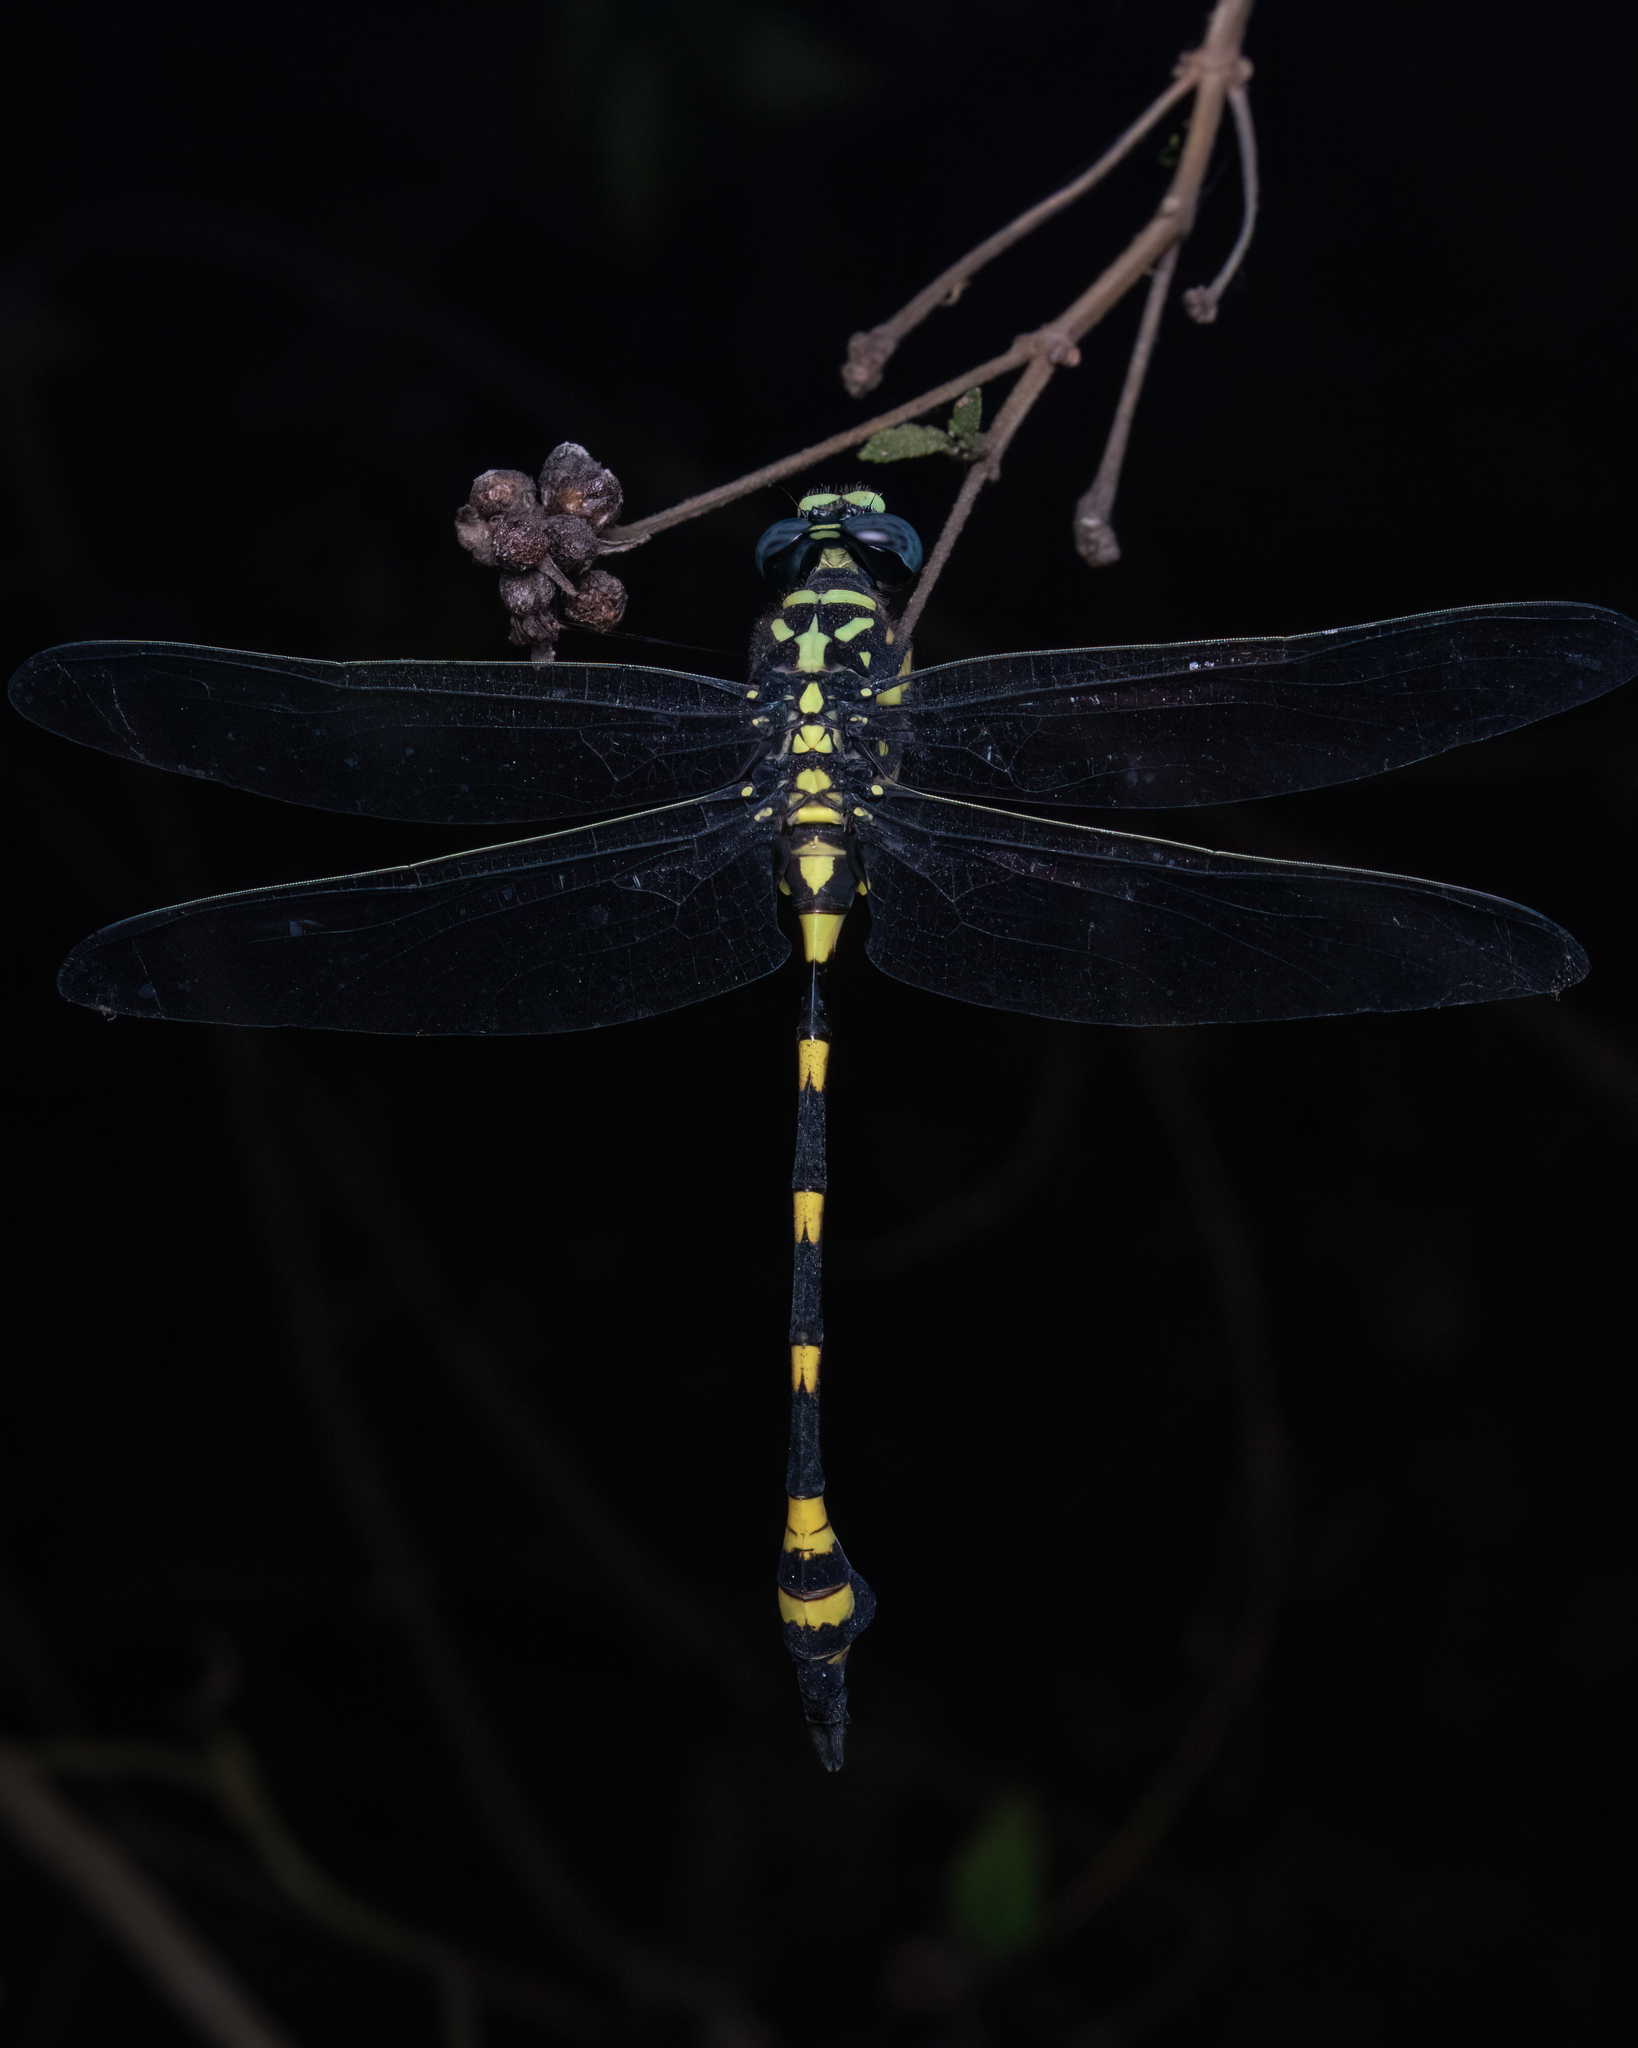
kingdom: Animalia
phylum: Arthropoda
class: Insecta
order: Odonata
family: Gomphidae
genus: Ictinogomphus
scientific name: Ictinogomphus rapax
